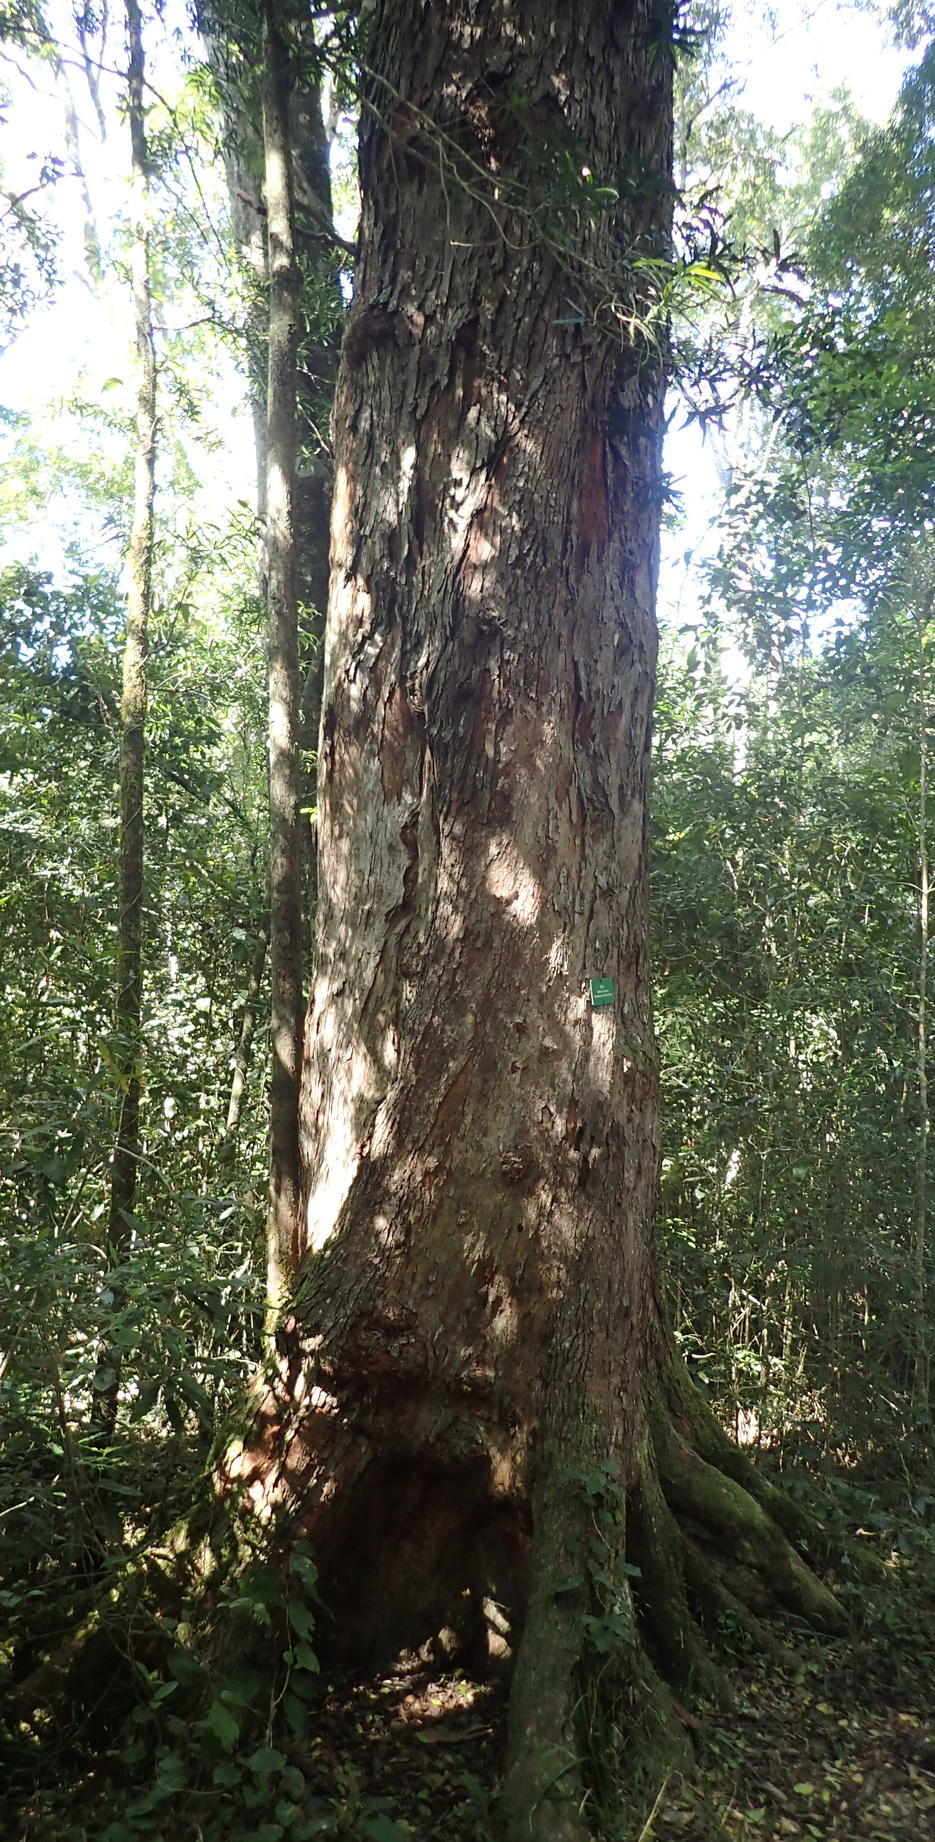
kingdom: Plantae
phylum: Tracheophyta
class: Magnoliopsida
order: Myrtales
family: Penaeaceae
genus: Olinia
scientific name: Olinia ventosa
